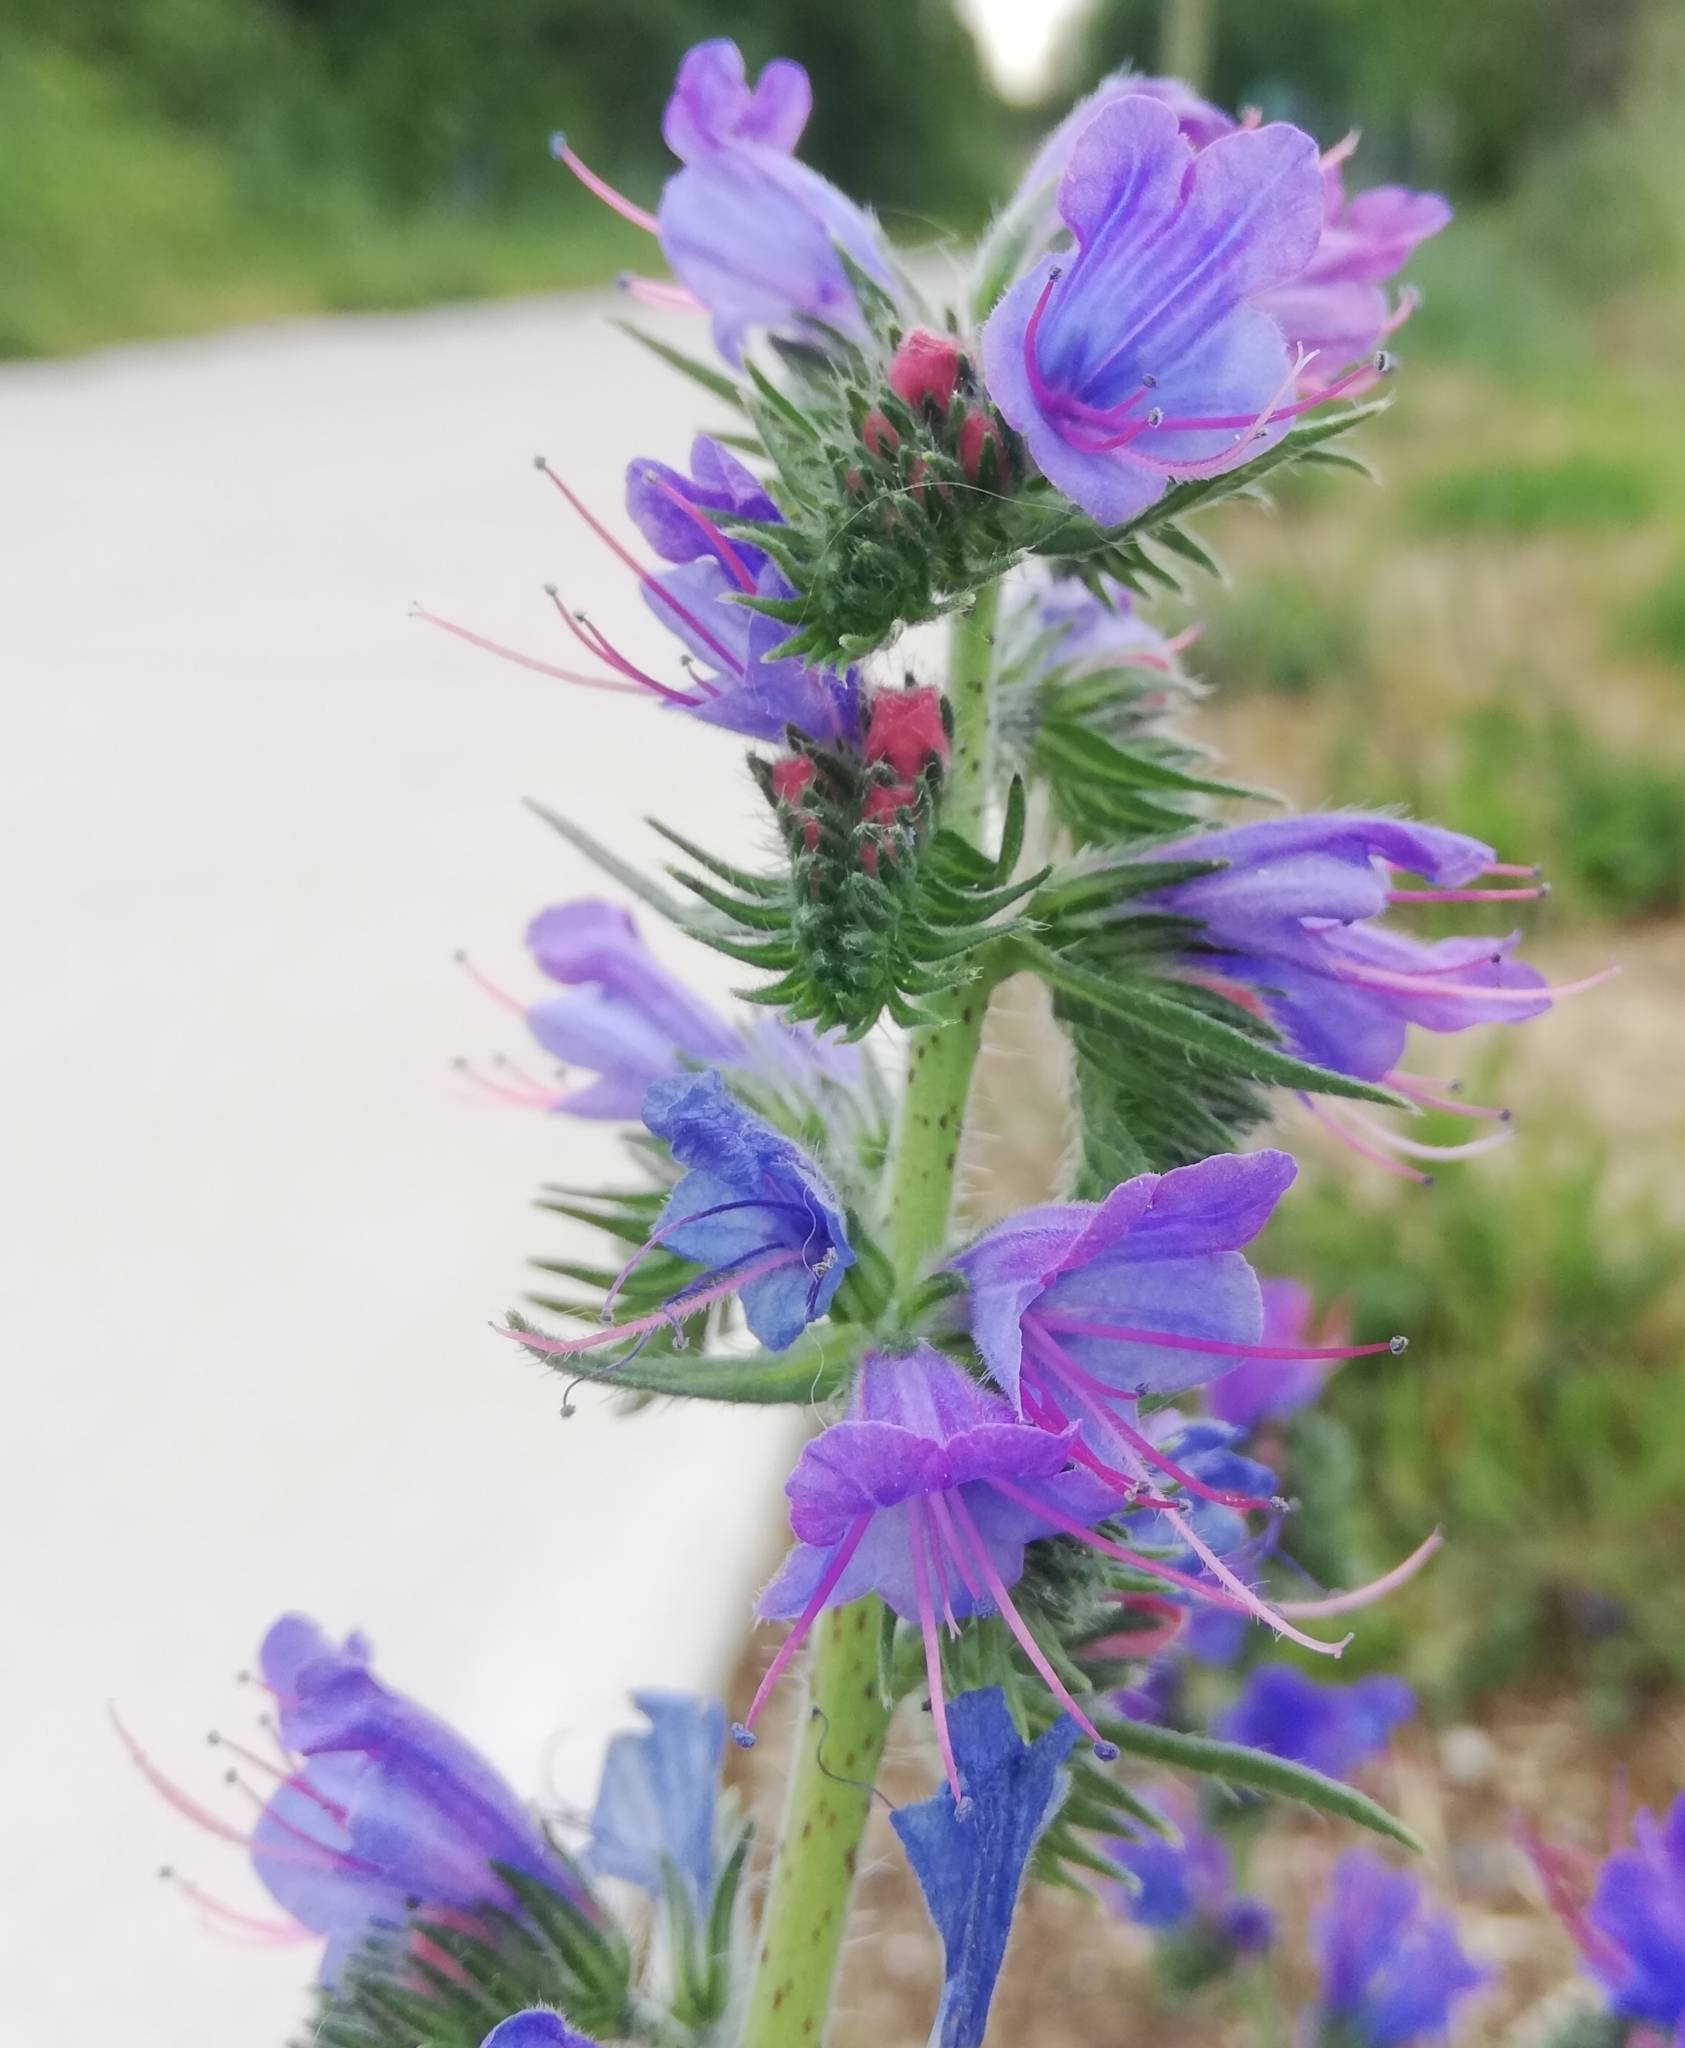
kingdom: Plantae
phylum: Tracheophyta
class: Magnoliopsida
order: Boraginales
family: Boraginaceae
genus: Echium
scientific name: Echium vulgare
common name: Common viper's bugloss
